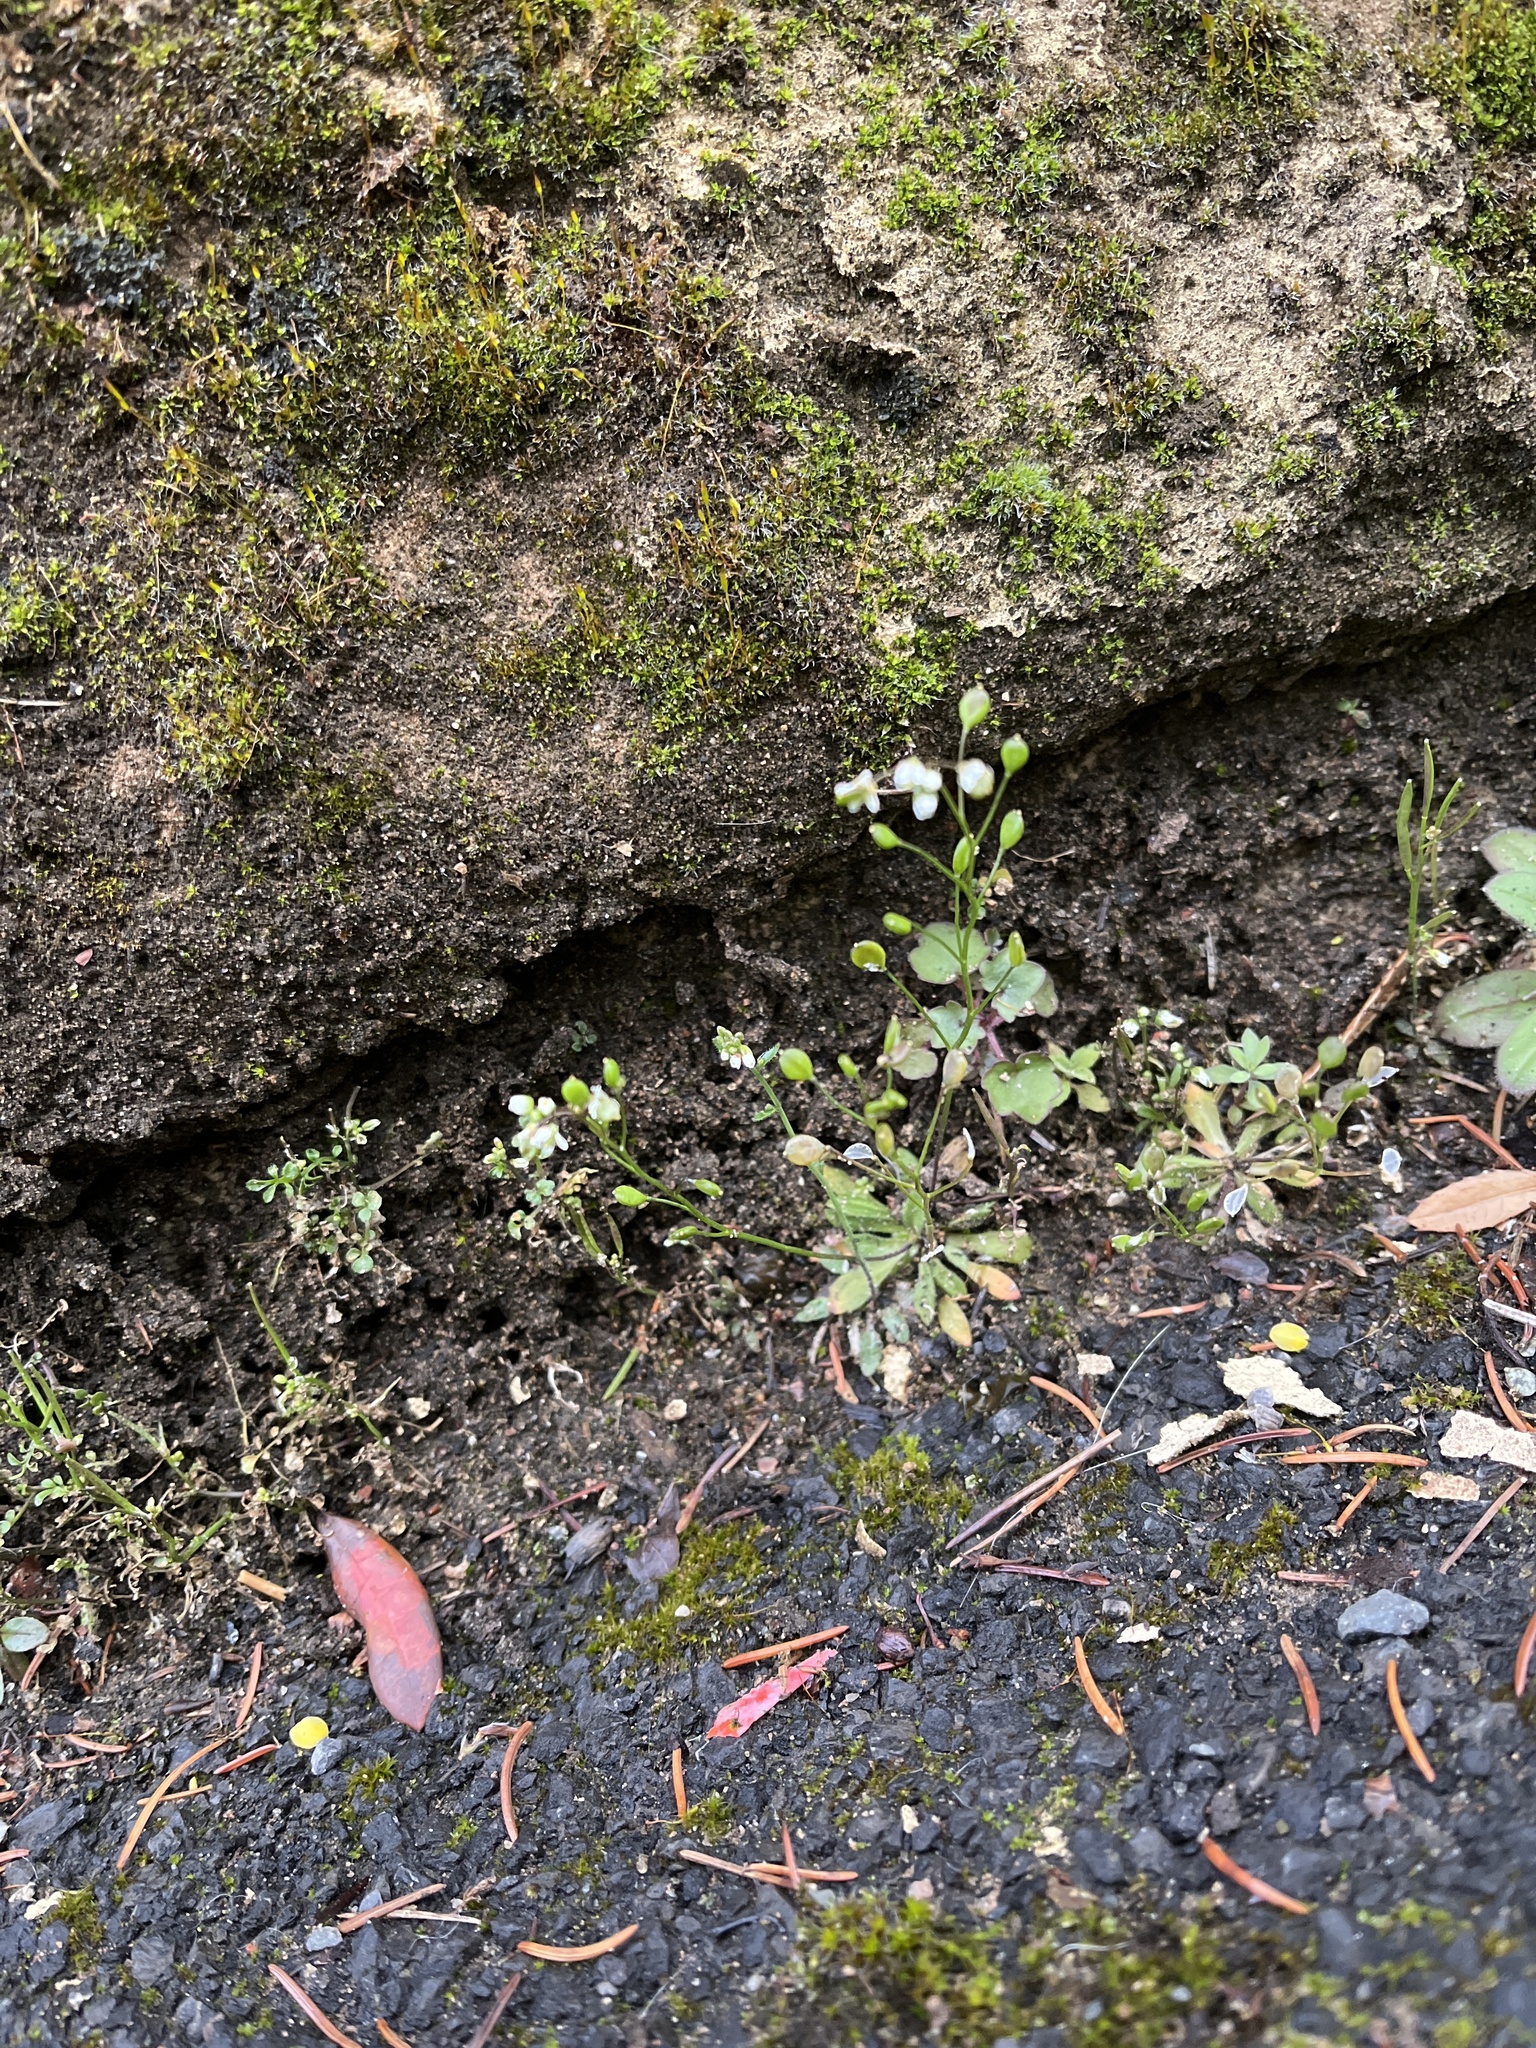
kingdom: Plantae
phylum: Tracheophyta
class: Magnoliopsida
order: Brassicales
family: Brassicaceae
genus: Draba
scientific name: Draba verna
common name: Spring draba
